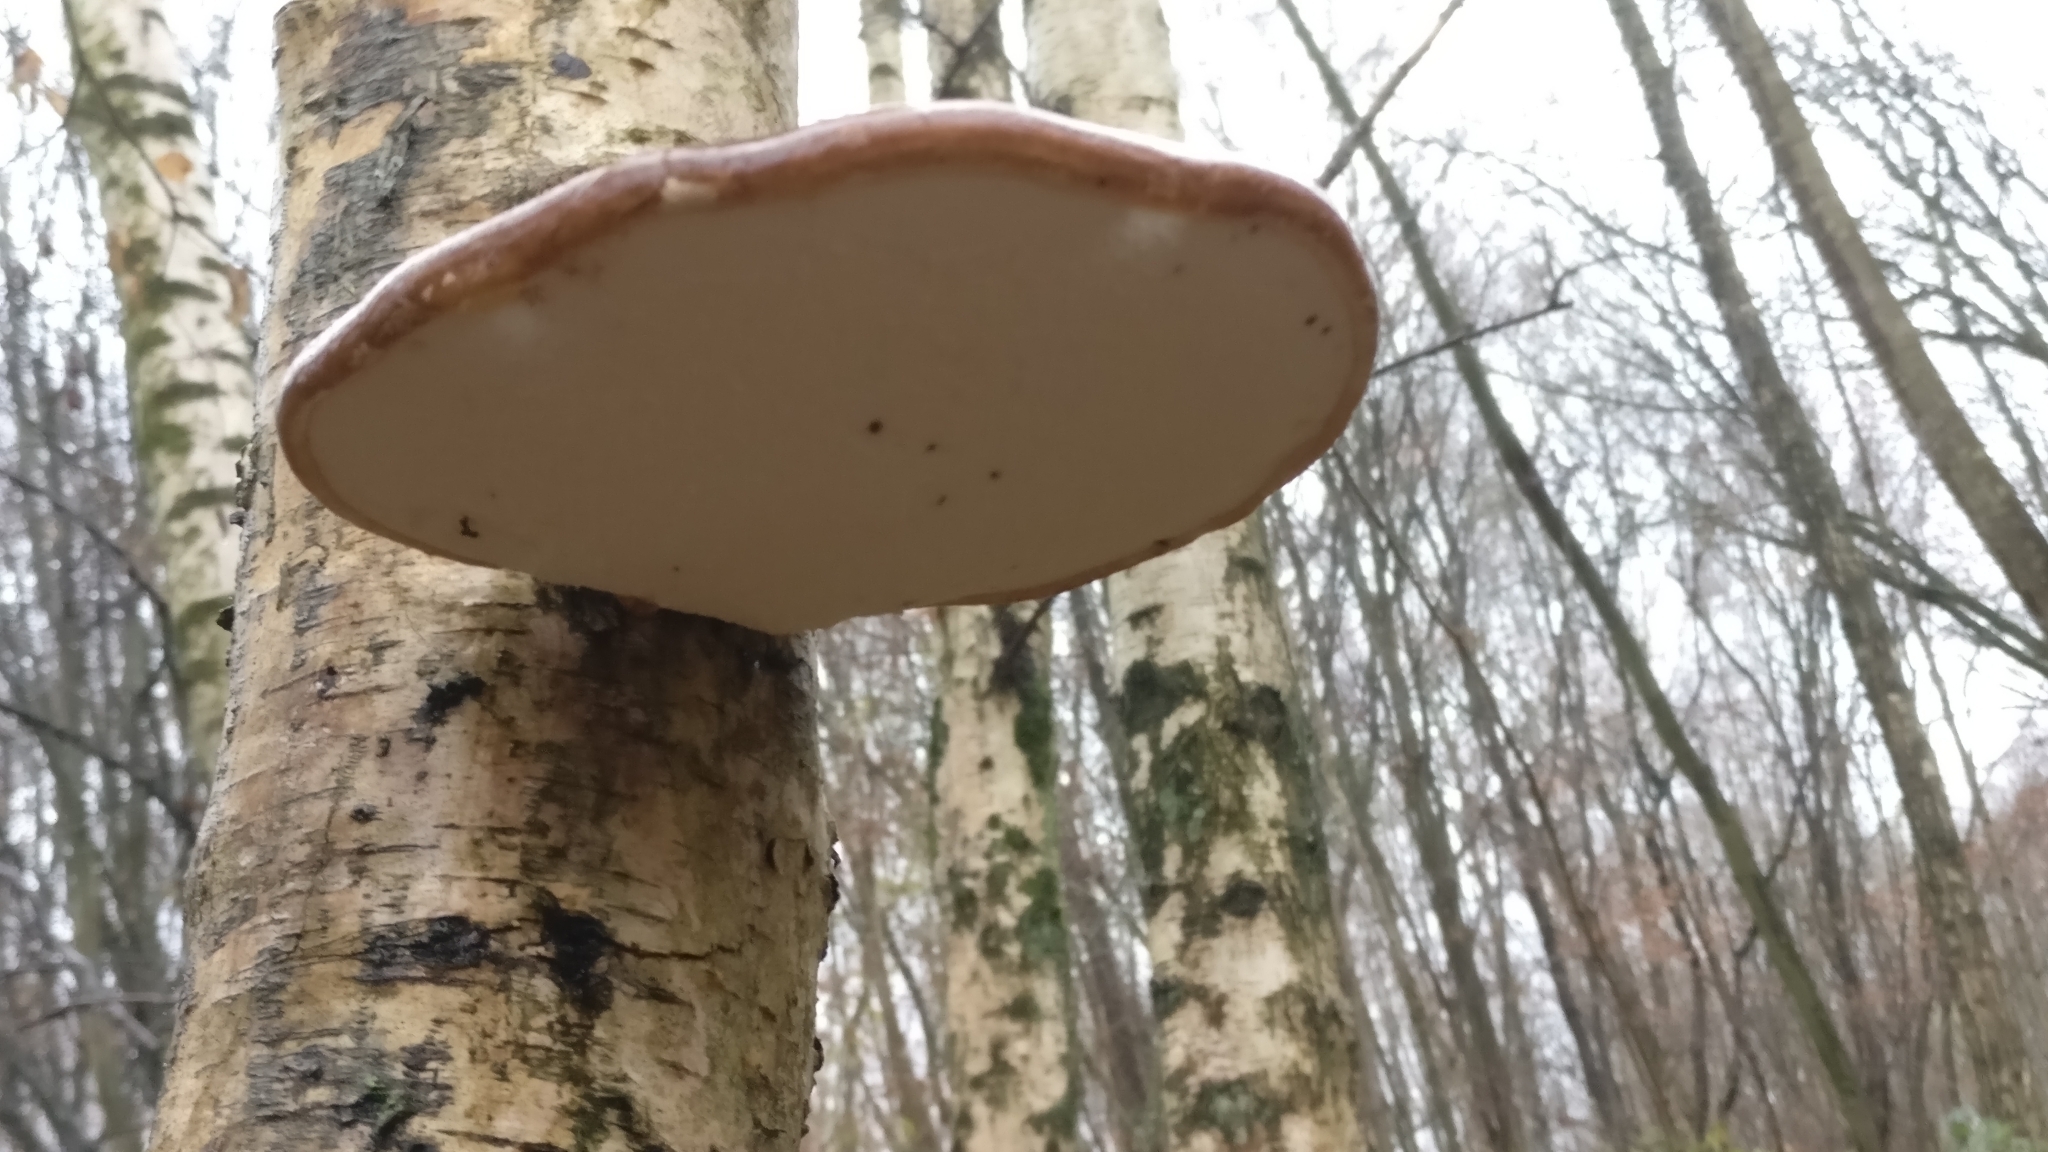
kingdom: Fungi
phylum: Basidiomycota
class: Agaricomycetes
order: Polyporales
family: Fomitopsidaceae
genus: Fomitopsis
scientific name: Fomitopsis betulina
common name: Birch polypore
